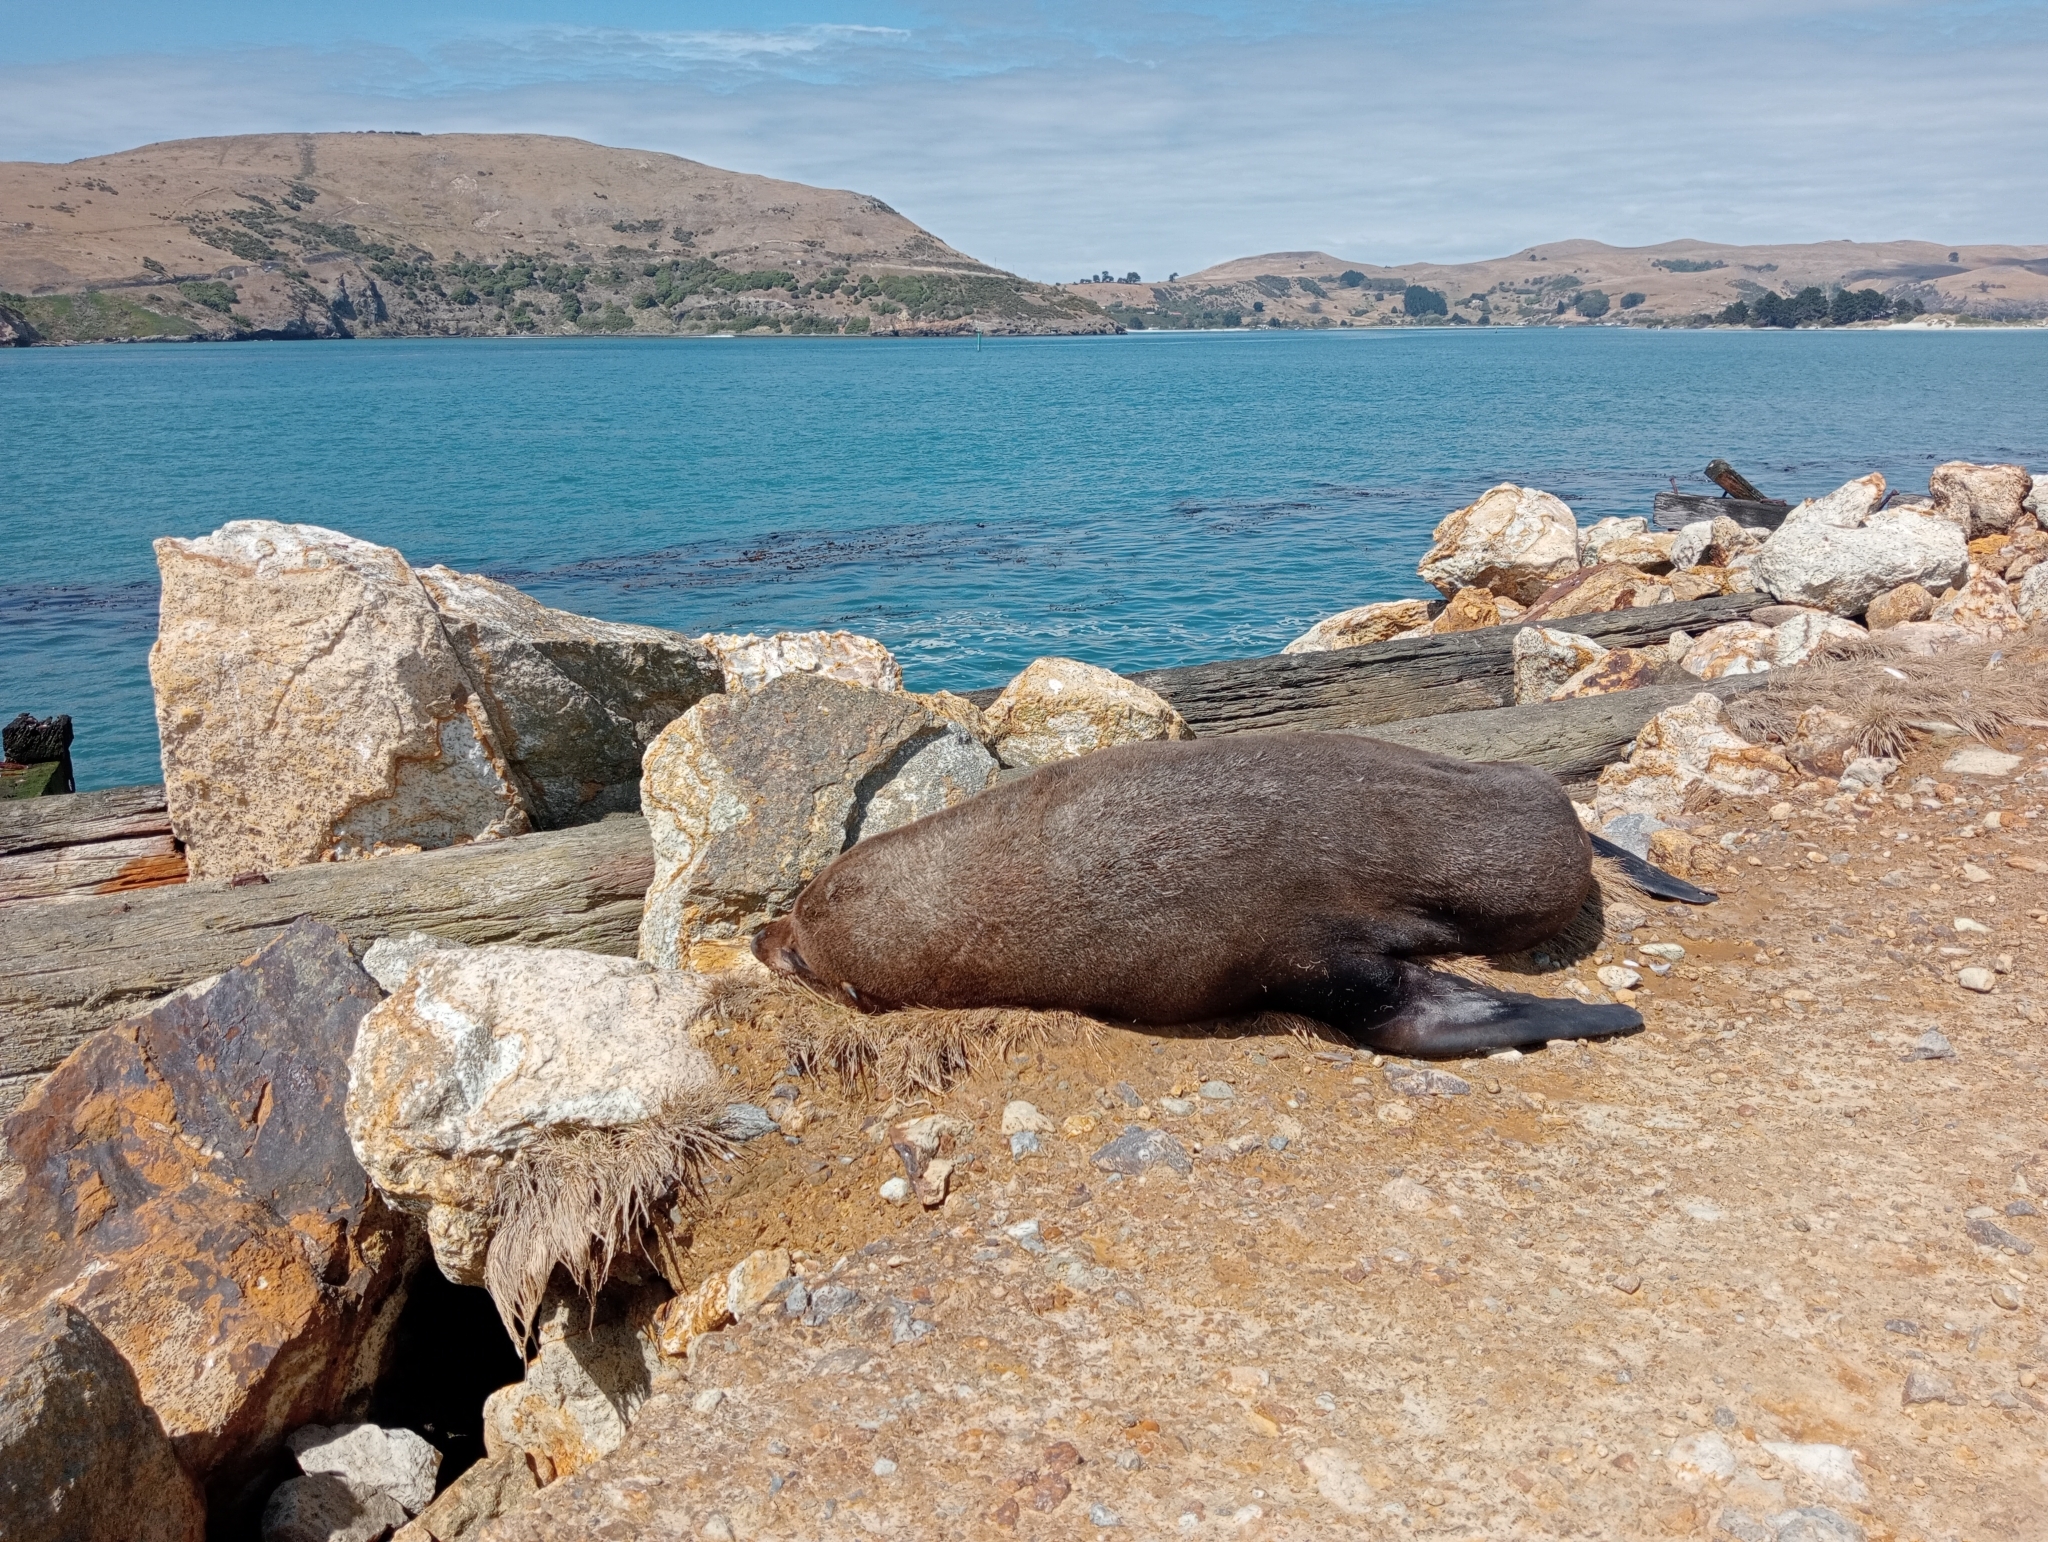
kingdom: Animalia
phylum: Chordata
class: Mammalia
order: Carnivora
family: Otariidae
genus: Arctocephalus
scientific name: Arctocephalus forsteri
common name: New zealand fur seal
